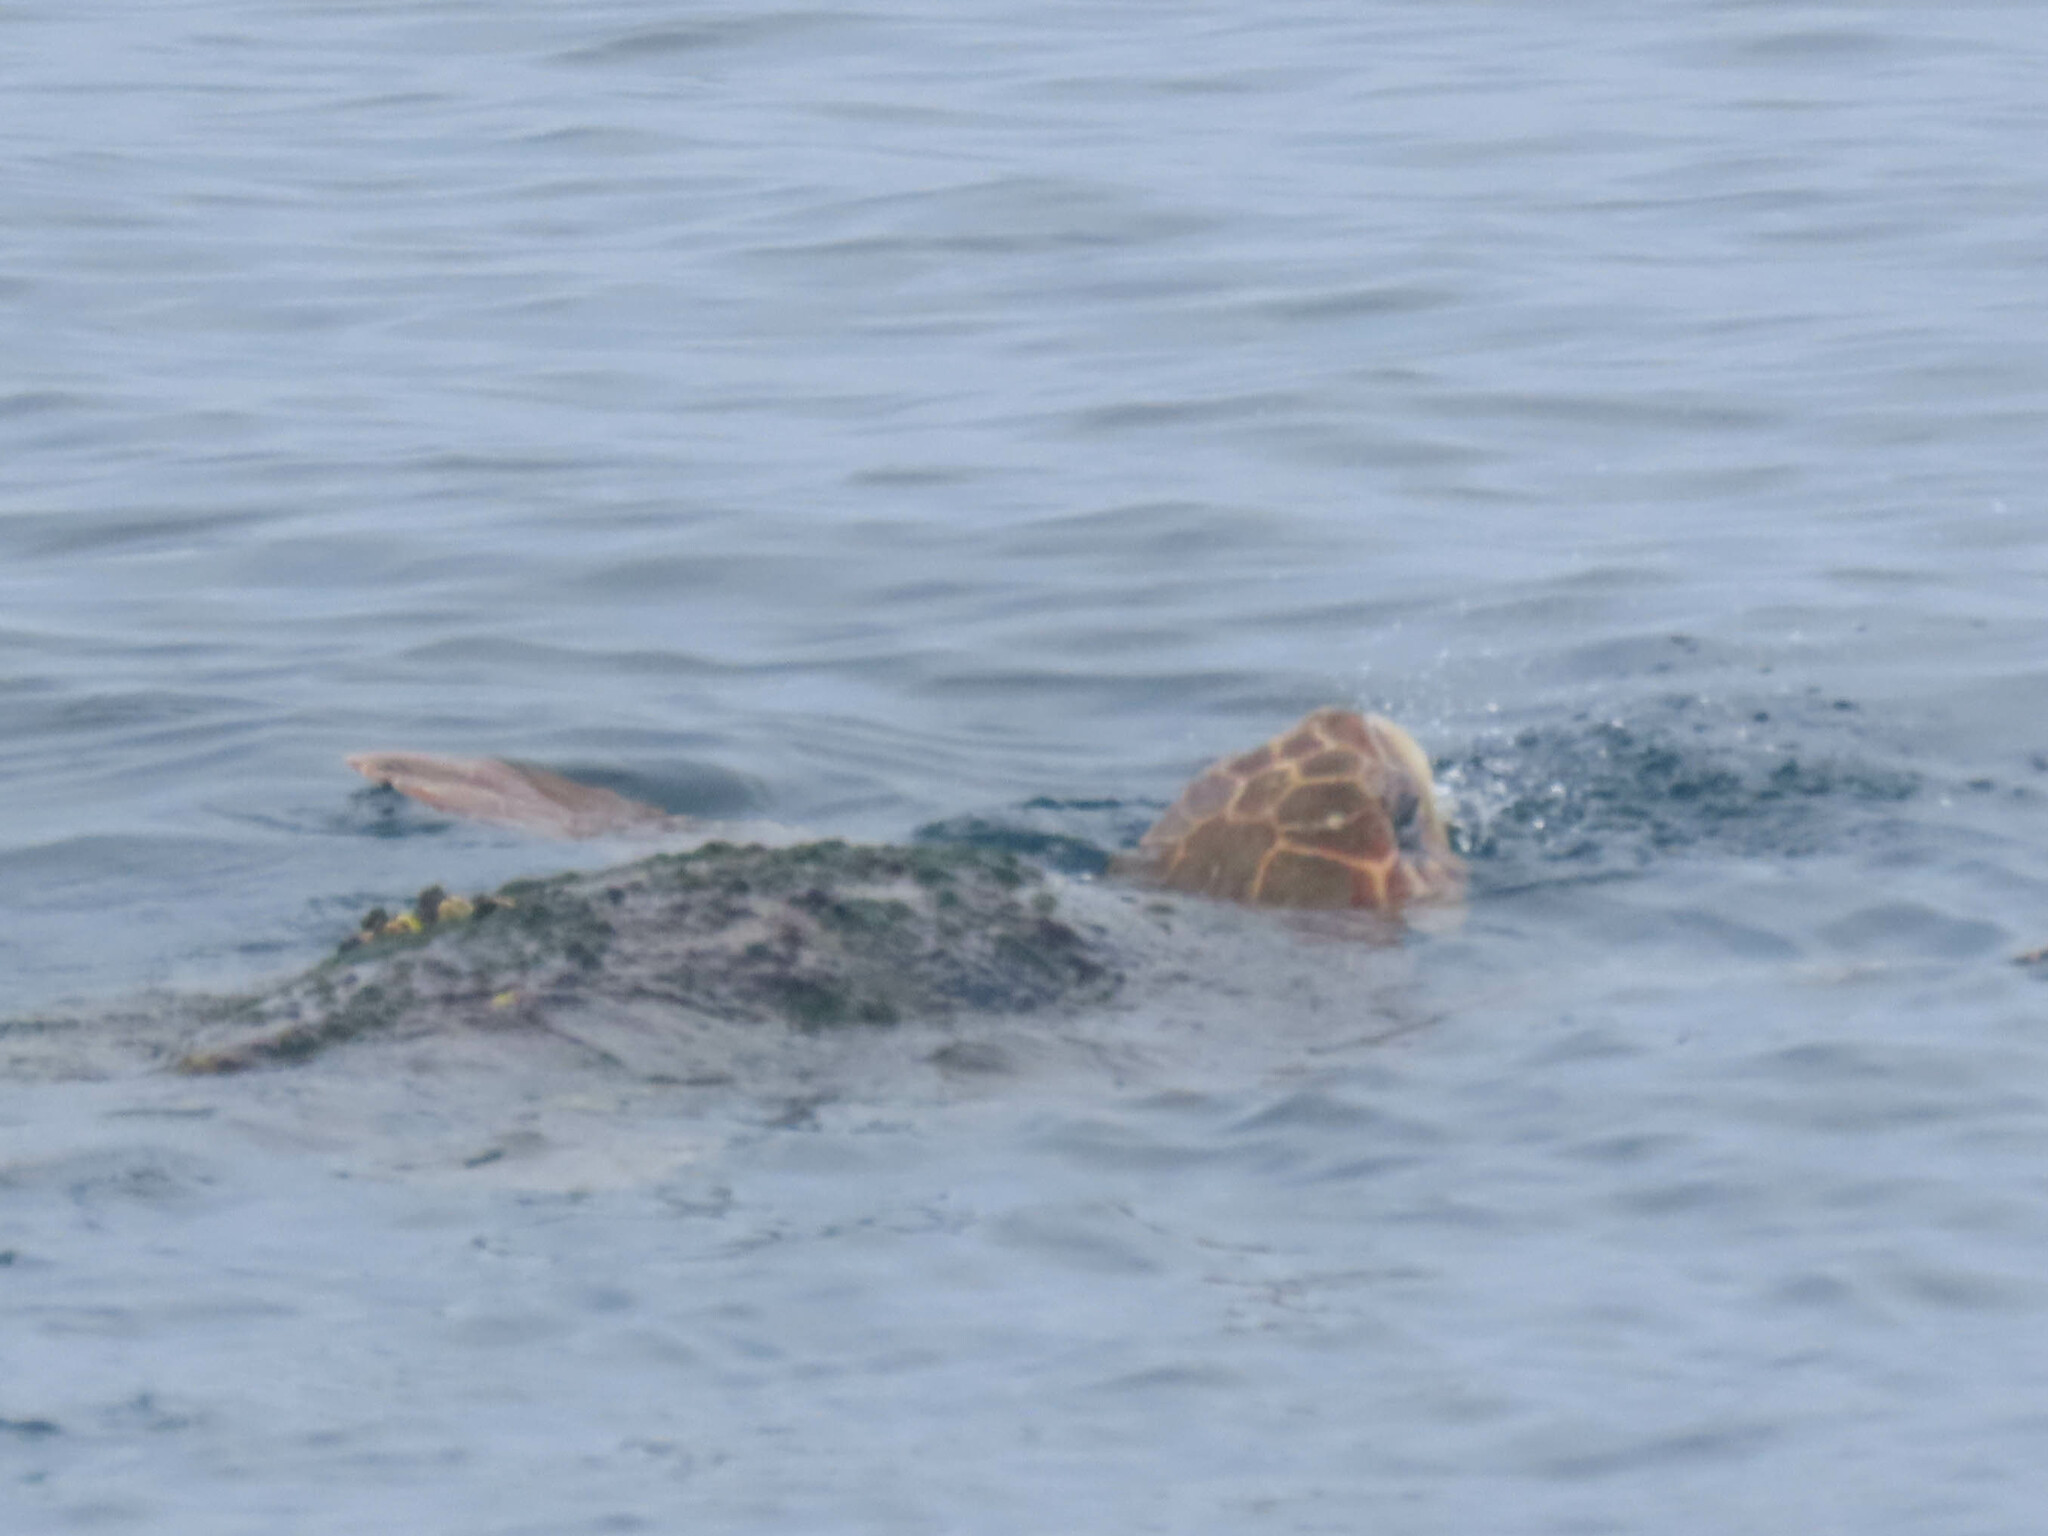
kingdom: Animalia
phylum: Chordata
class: Testudines
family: Cheloniidae
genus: Caretta
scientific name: Caretta caretta
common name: Loggerhead sea turtle
